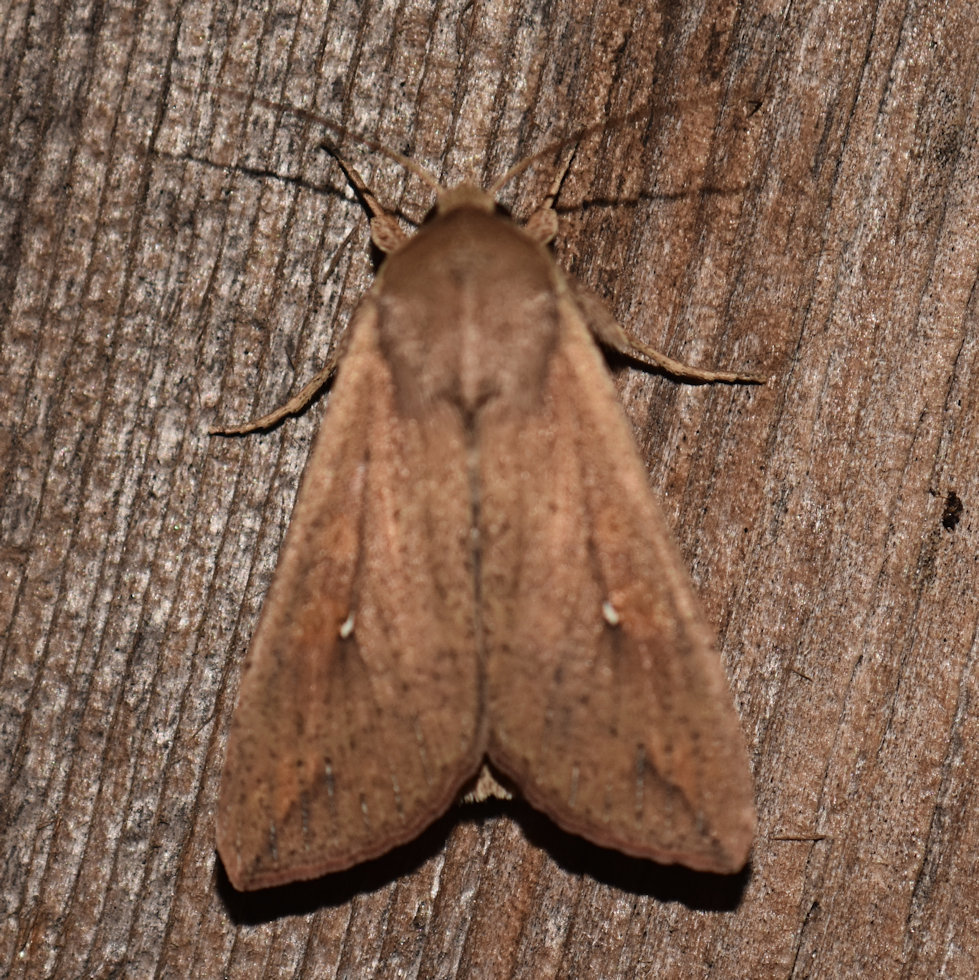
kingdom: Animalia
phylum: Arthropoda
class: Insecta
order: Lepidoptera
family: Noctuidae
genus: Mythimna
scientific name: Mythimna unipuncta
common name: White-speck
